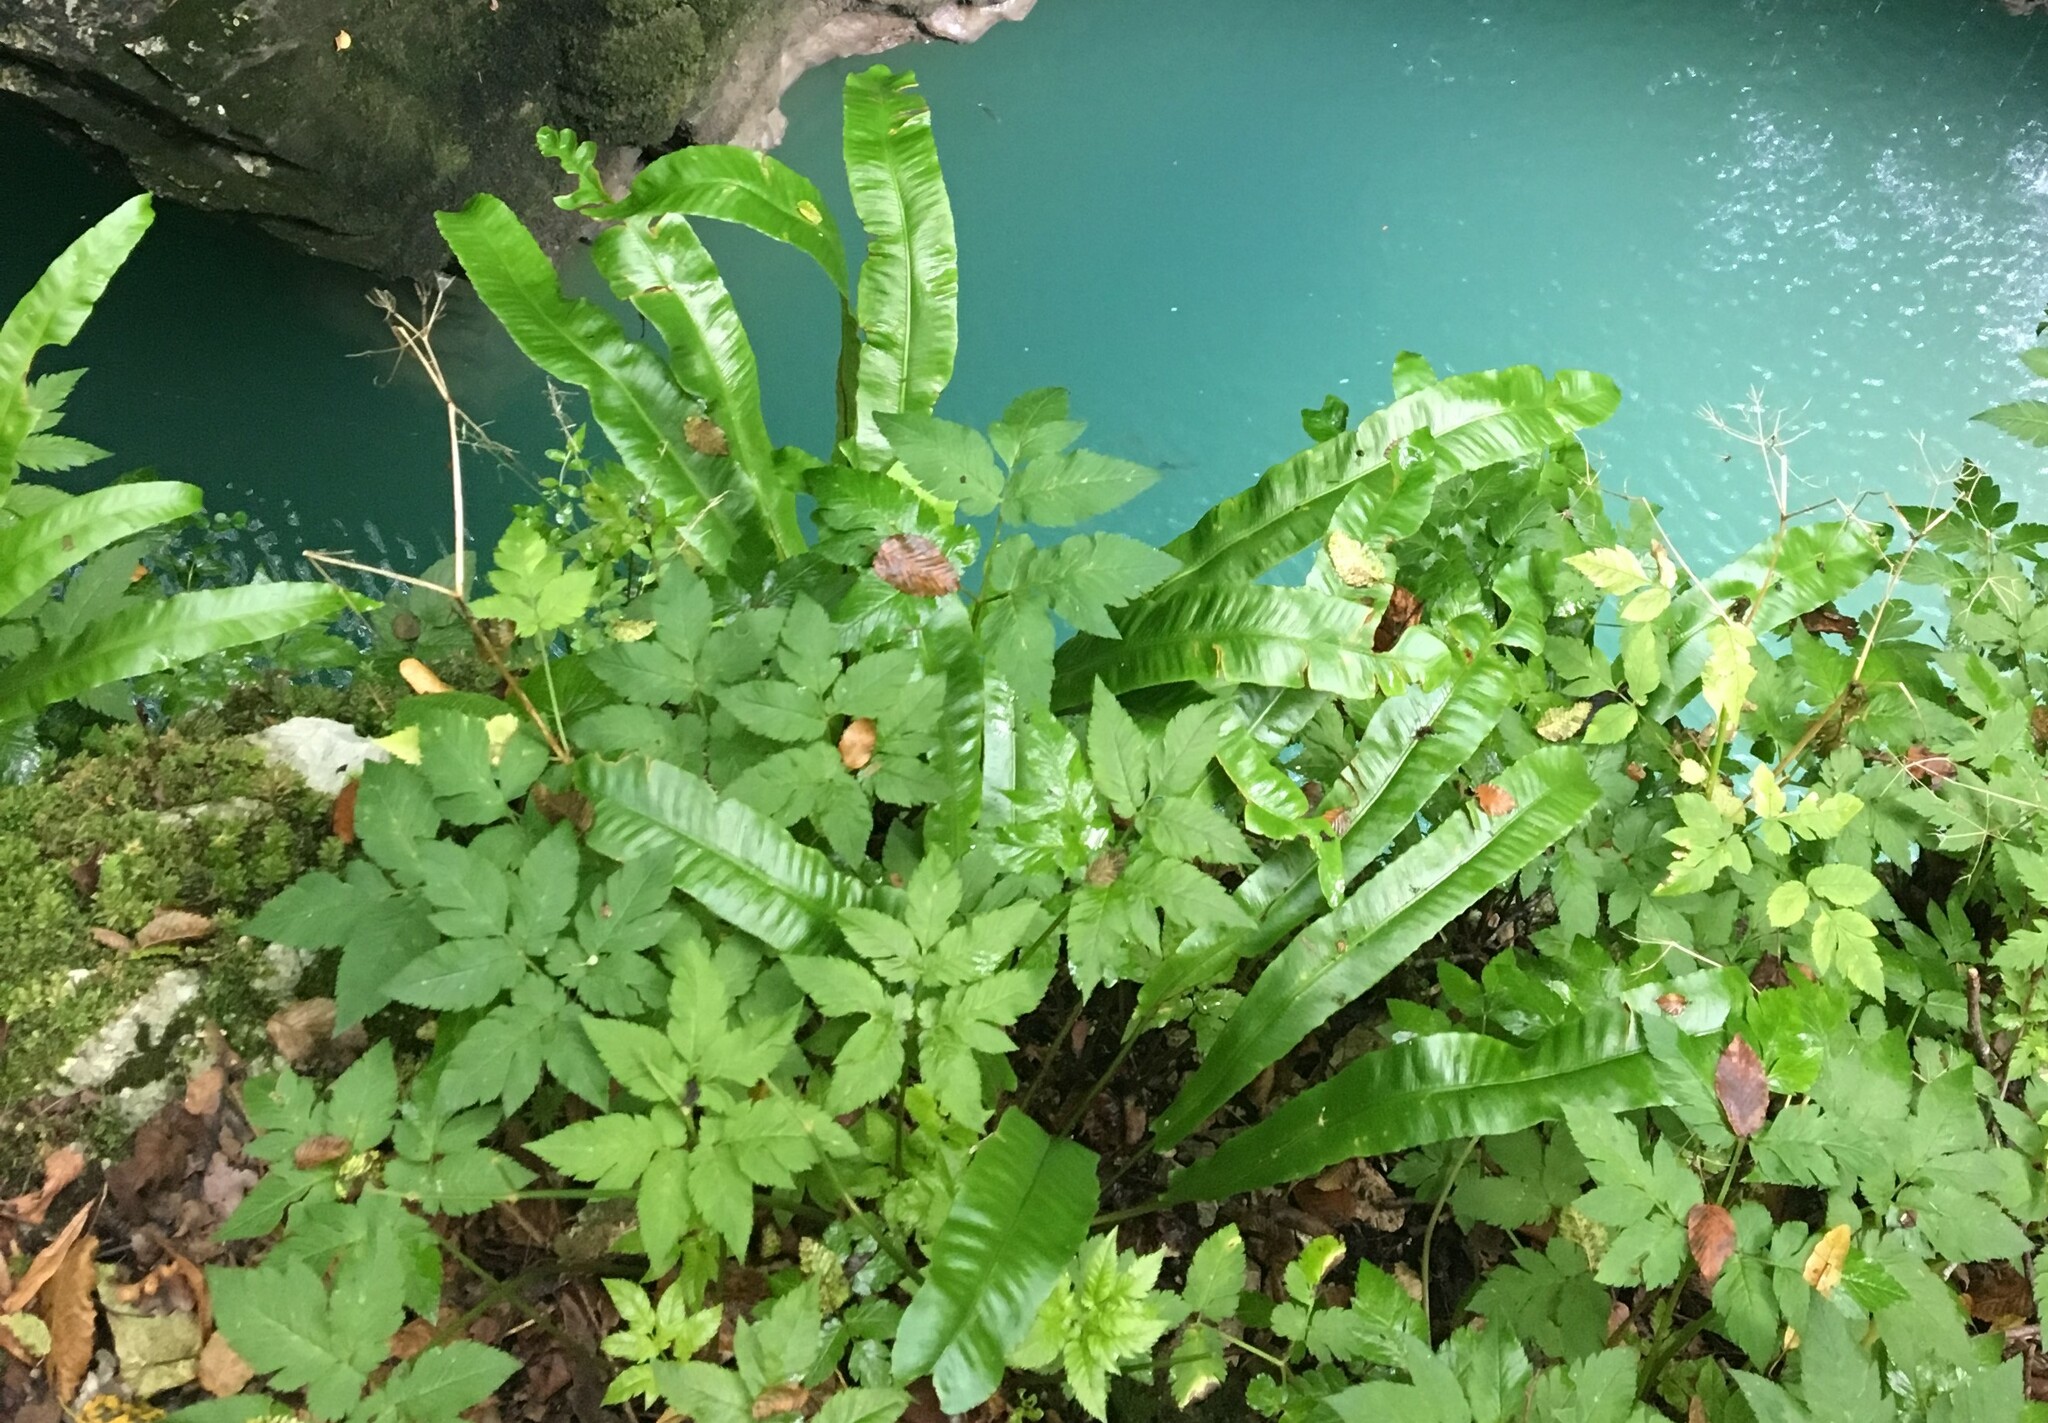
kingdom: Plantae
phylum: Tracheophyta
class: Polypodiopsida
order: Polypodiales
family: Aspleniaceae
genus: Asplenium
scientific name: Asplenium scolopendrium
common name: Hart's-tongue fern
